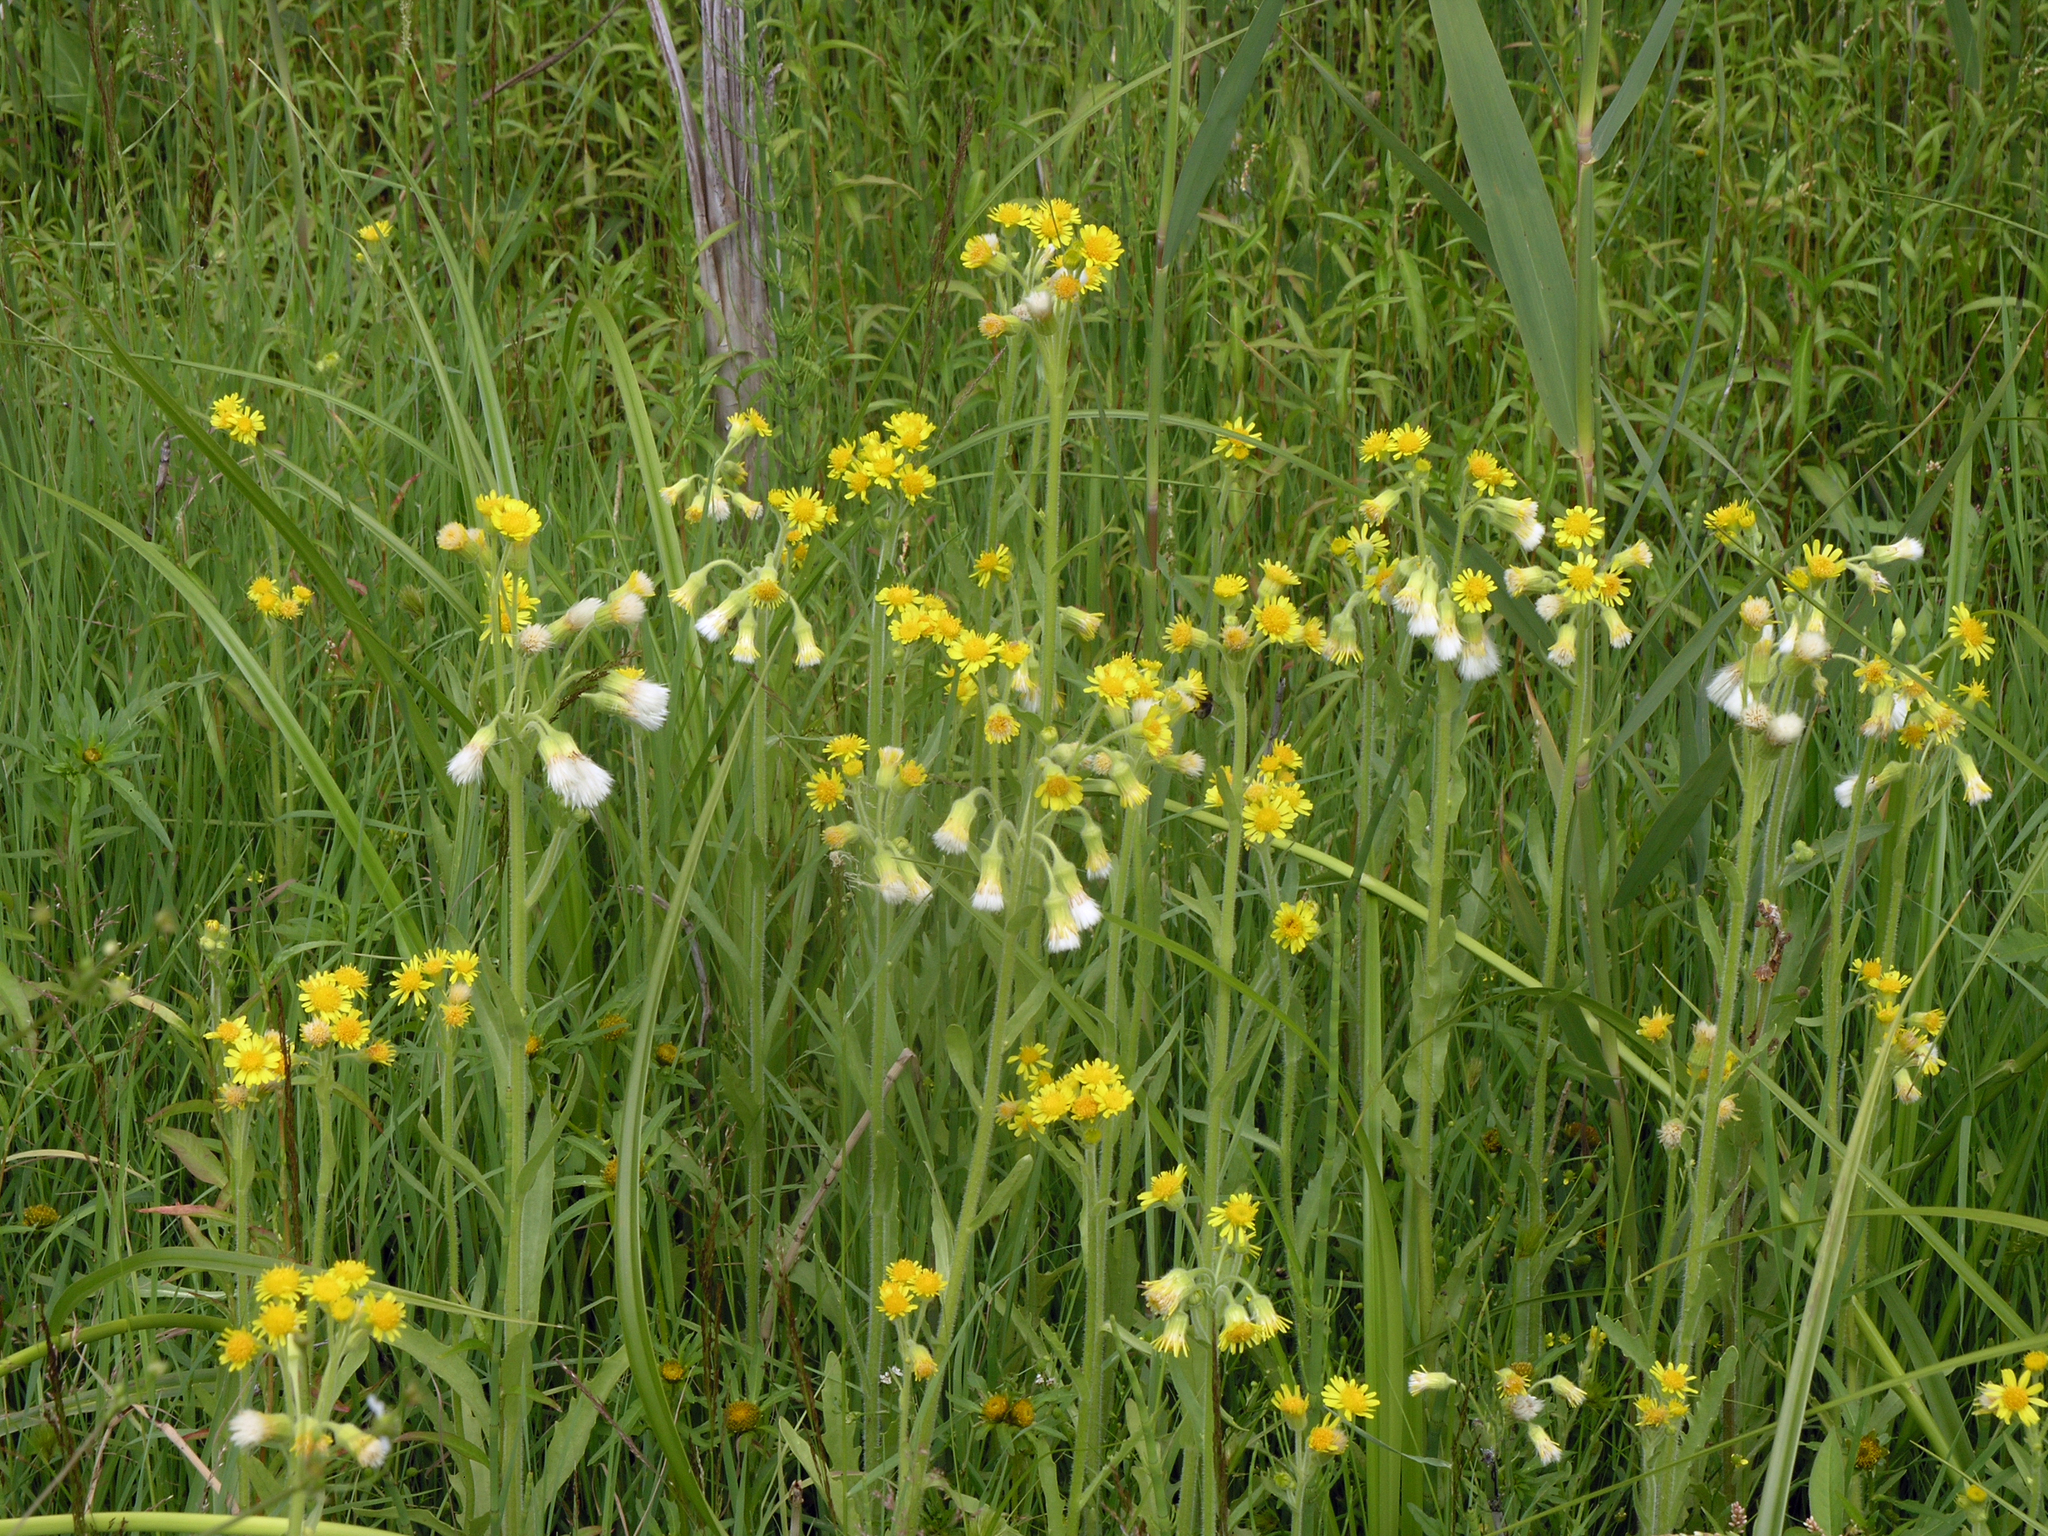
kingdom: Plantae
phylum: Tracheophyta
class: Magnoliopsida
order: Asterales
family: Asteraceae
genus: Tephroseris
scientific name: Tephroseris palustris
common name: Marsh fleawort
